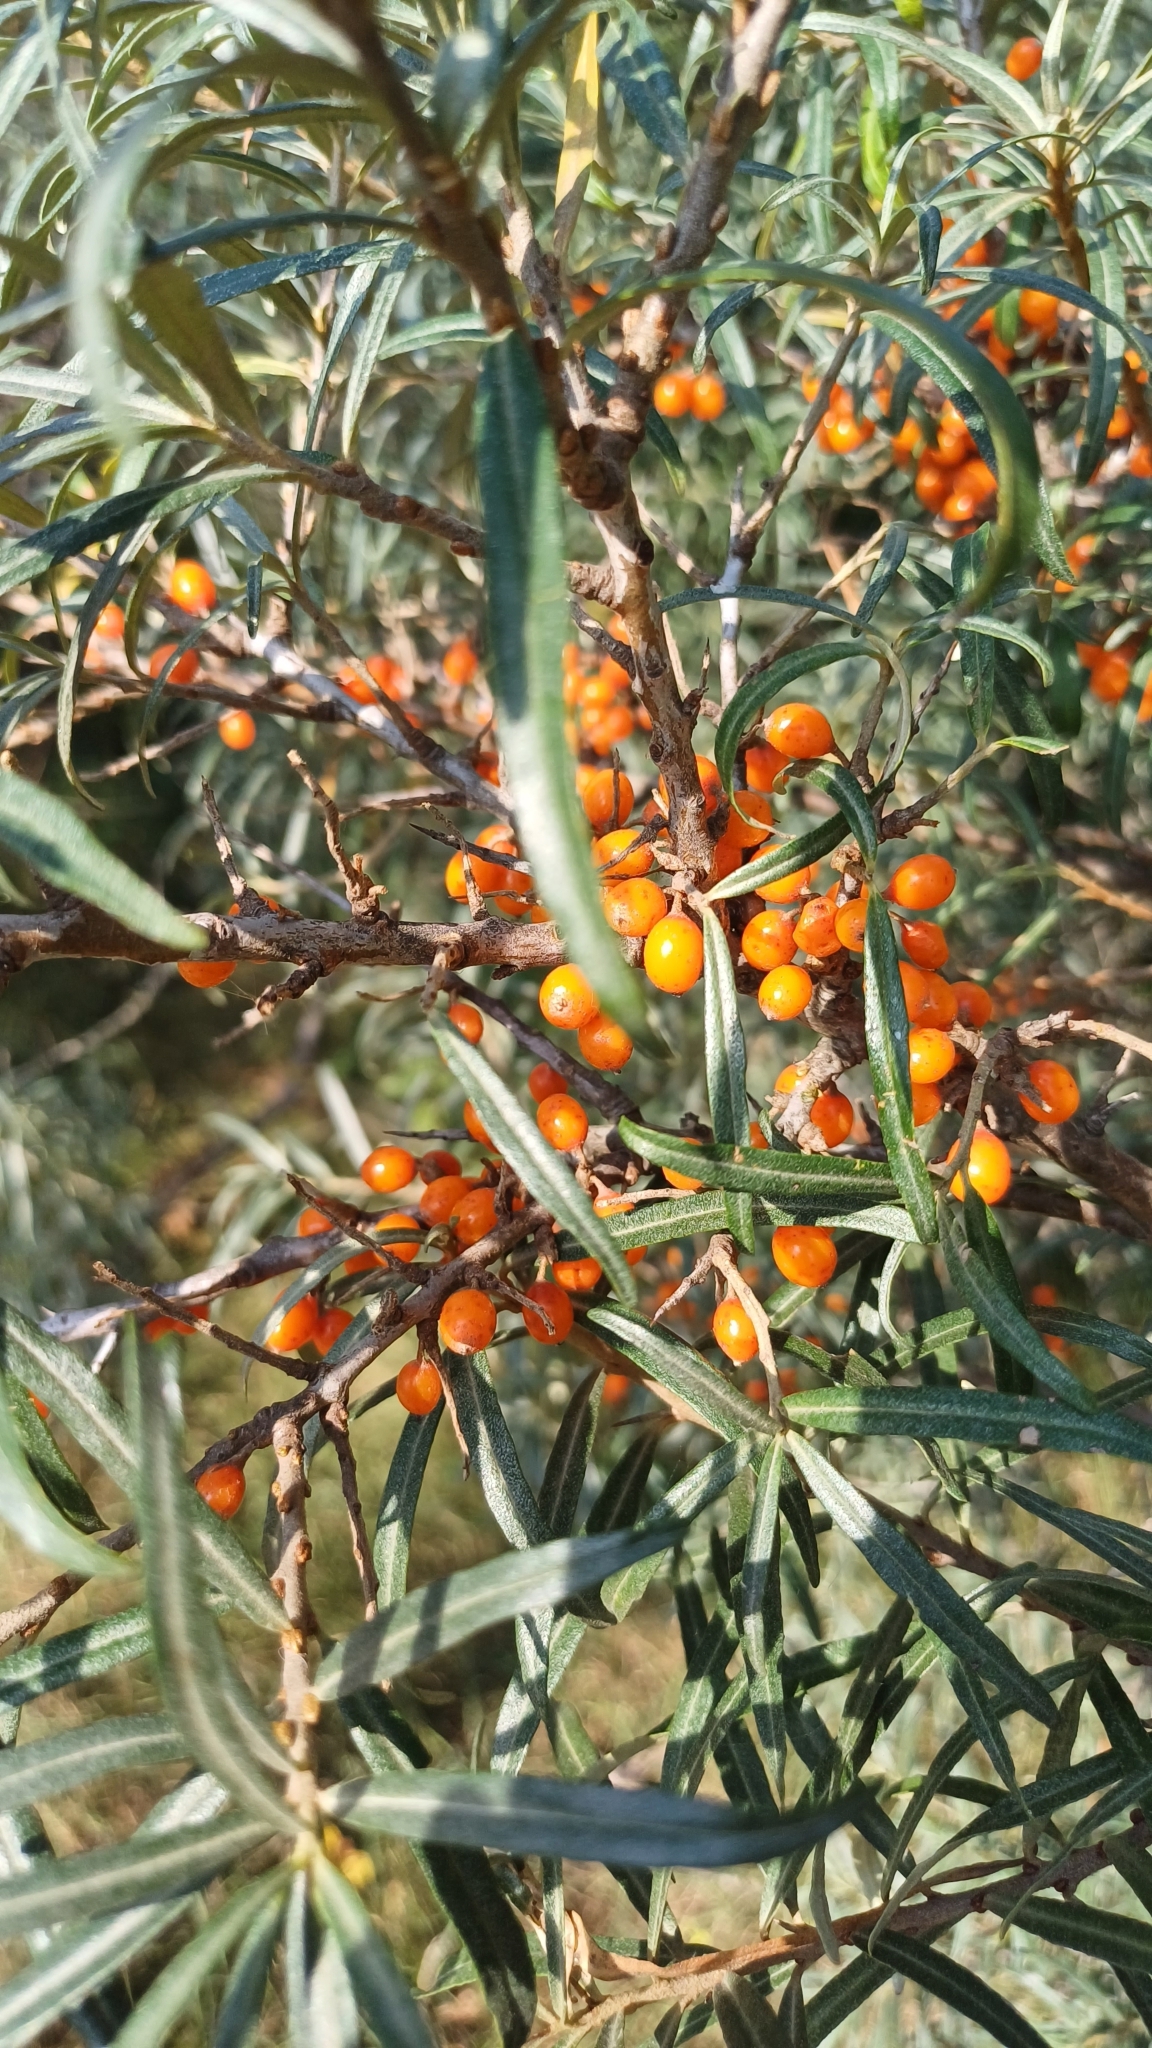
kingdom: Plantae
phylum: Tracheophyta
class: Magnoliopsida
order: Rosales
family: Elaeagnaceae
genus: Hippophae
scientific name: Hippophae rhamnoides
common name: Sea-buckthorn
